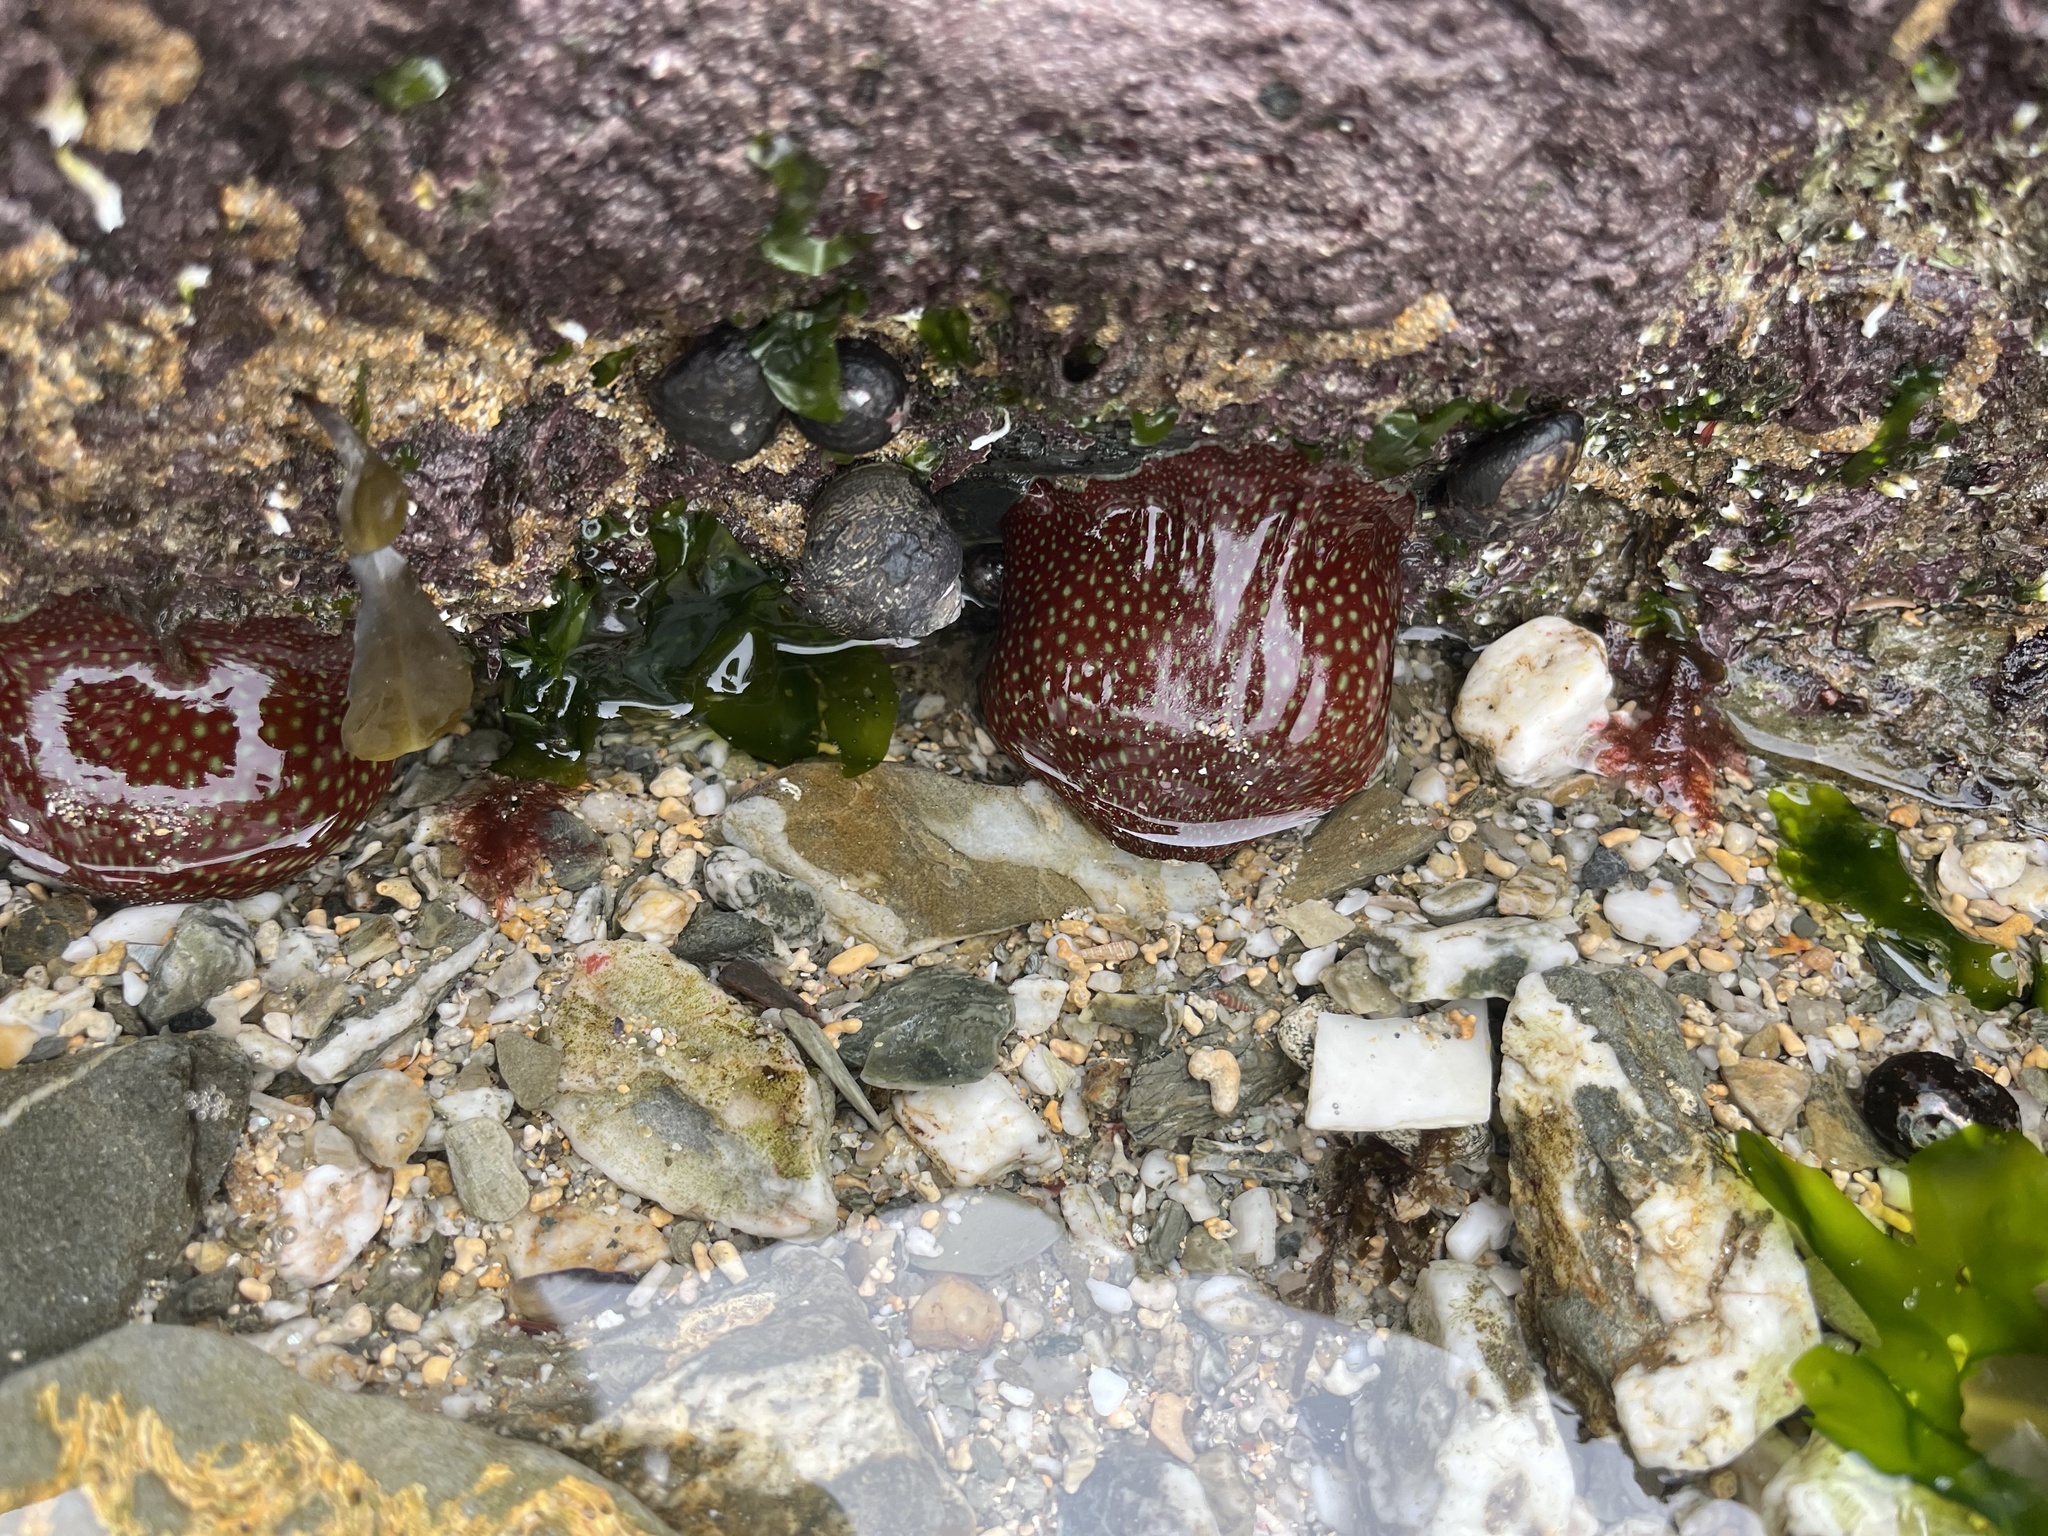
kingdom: Animalia
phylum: Cnidaria
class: Anthozoa
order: Actiniaria
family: Actiniidae
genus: Actinia
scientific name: Actinia fragacea
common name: Strawberry anemone
